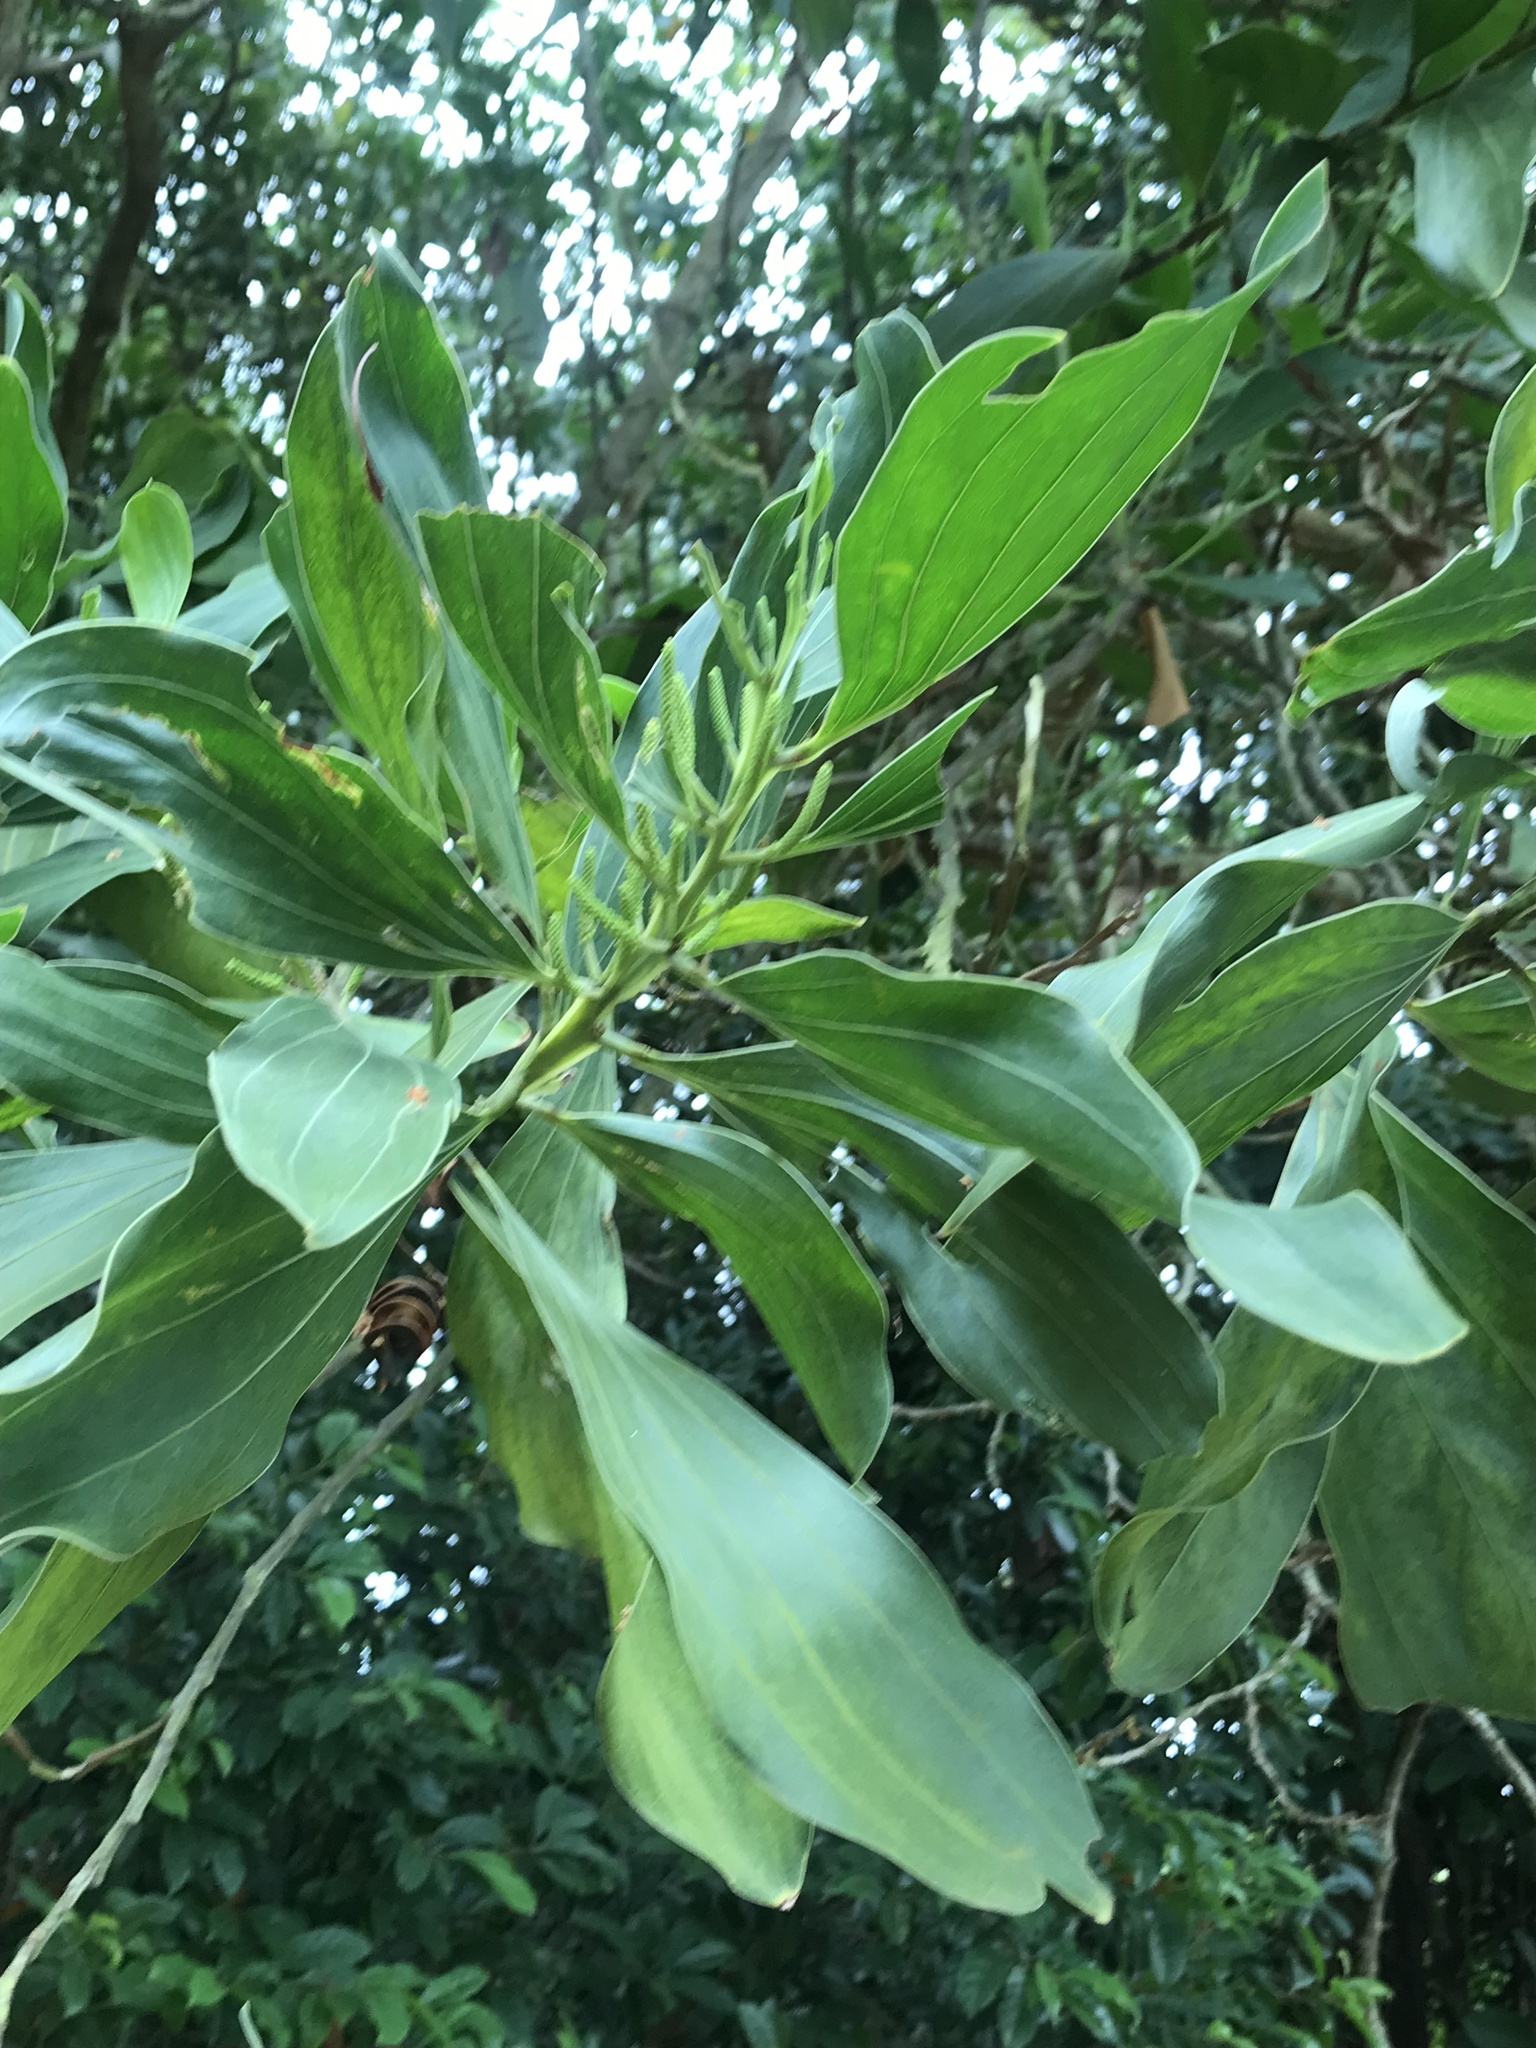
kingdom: Plantae
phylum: Tracheophyta
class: Magnoliopsida
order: Fabales
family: Fabaceae
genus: Acacia
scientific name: Acacia mangium
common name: Black wattle
